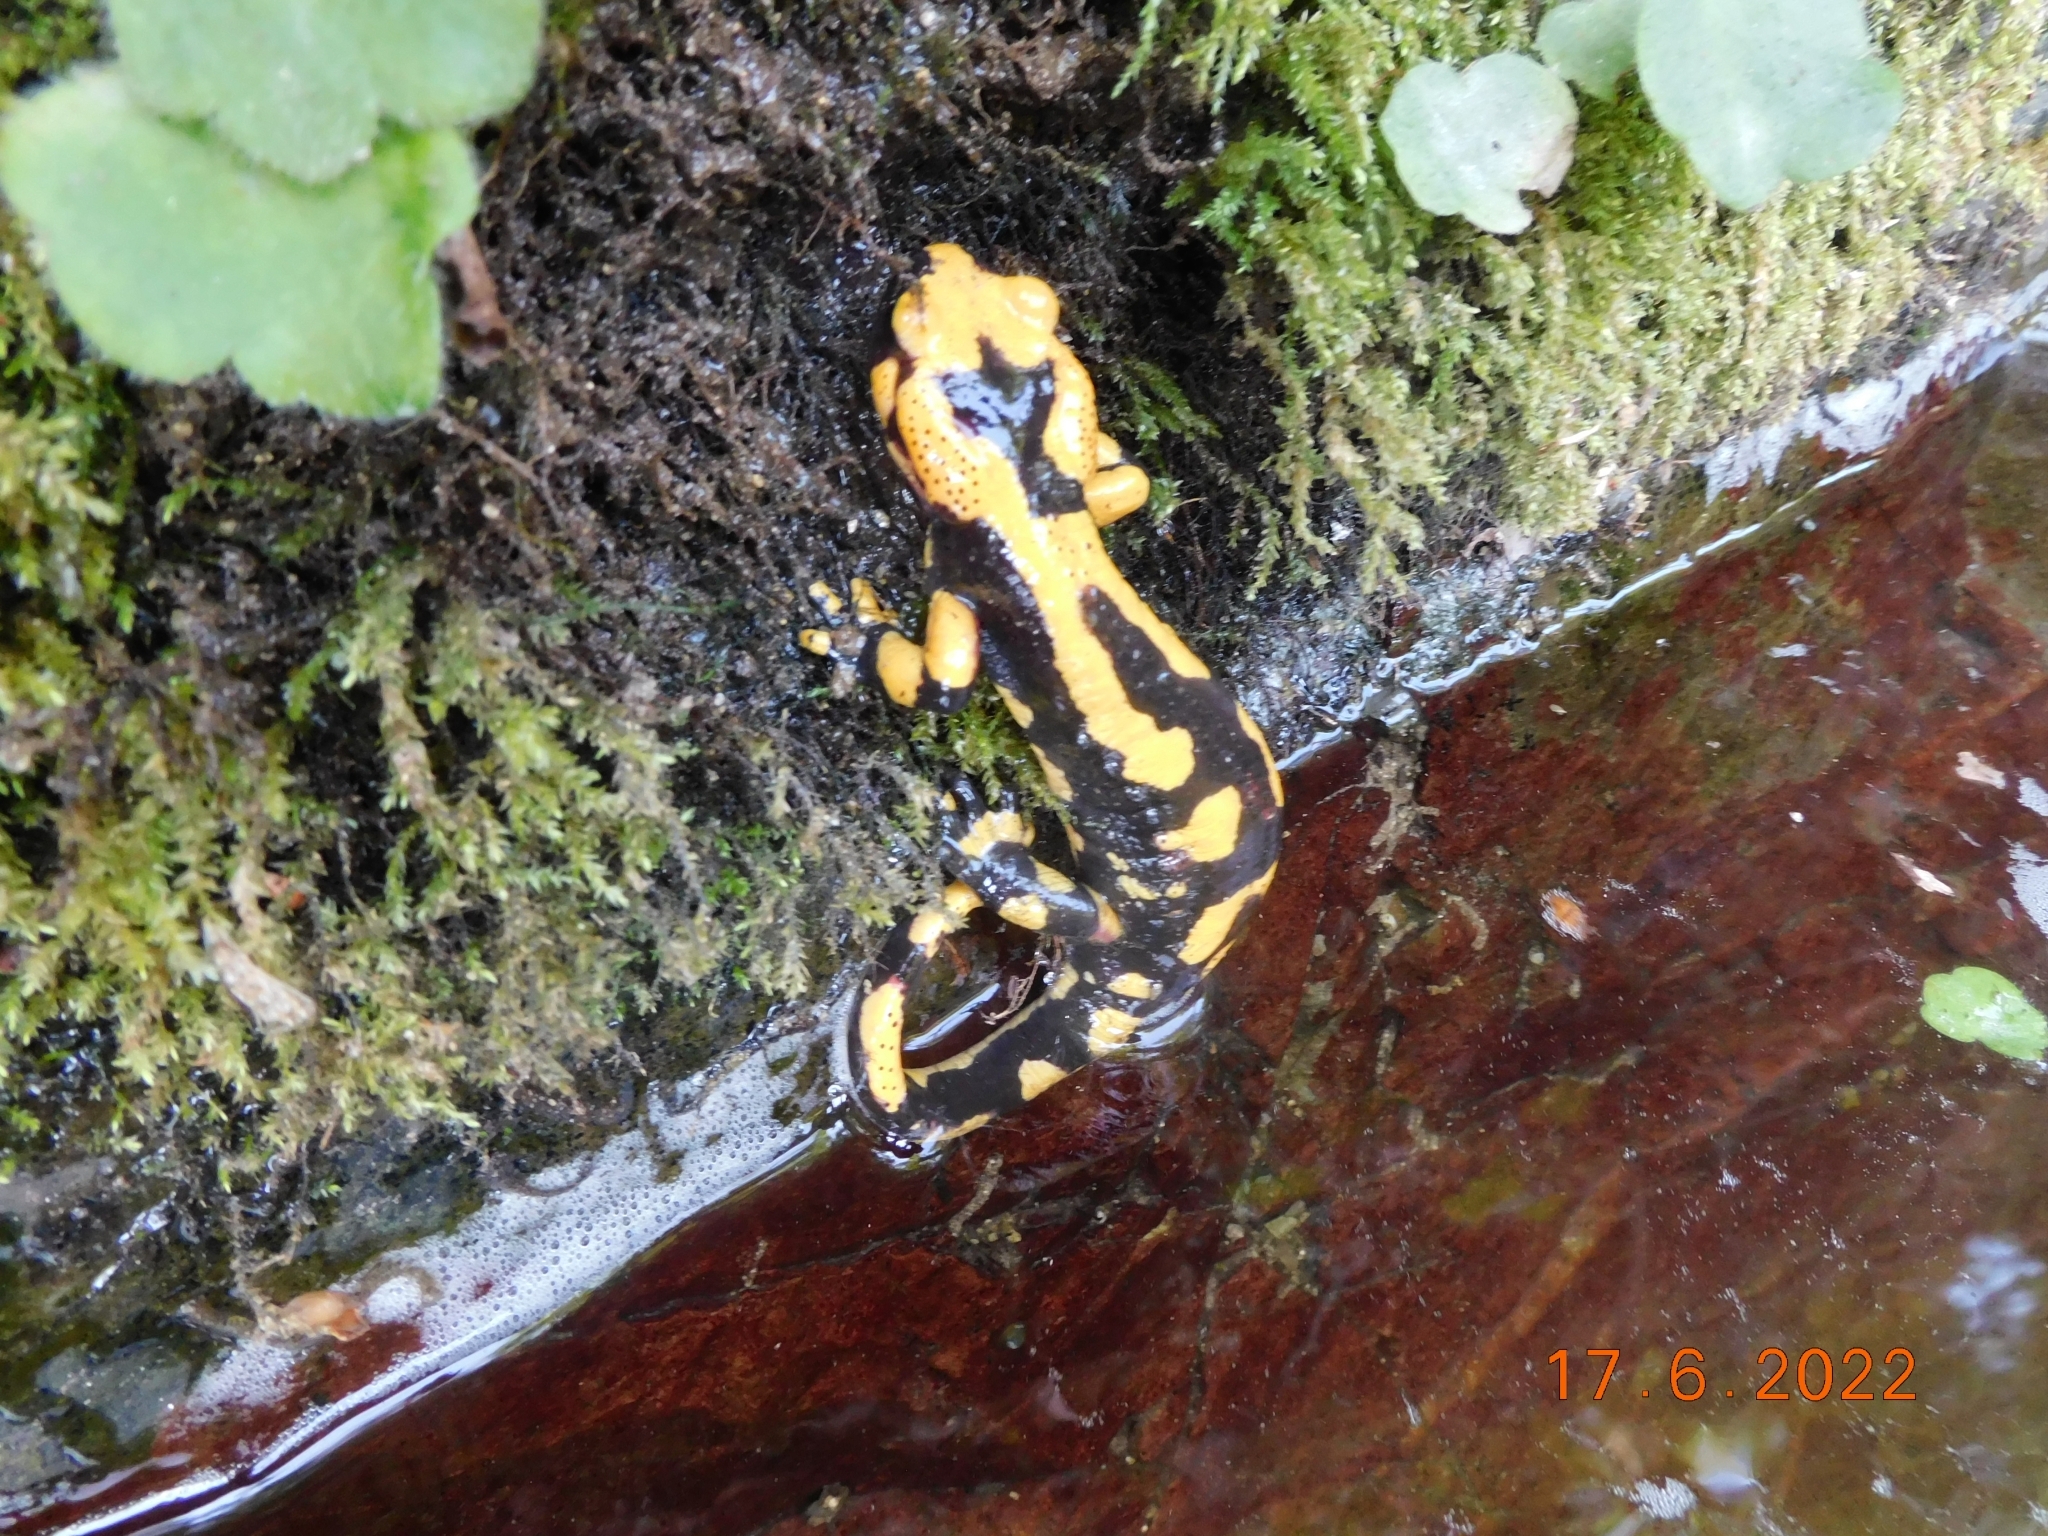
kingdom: Animalia
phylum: Chordata
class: Amphibia
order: Caudata
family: Salamandridae
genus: Salamandra
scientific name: Salamandra salamandra
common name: Fire salamander
